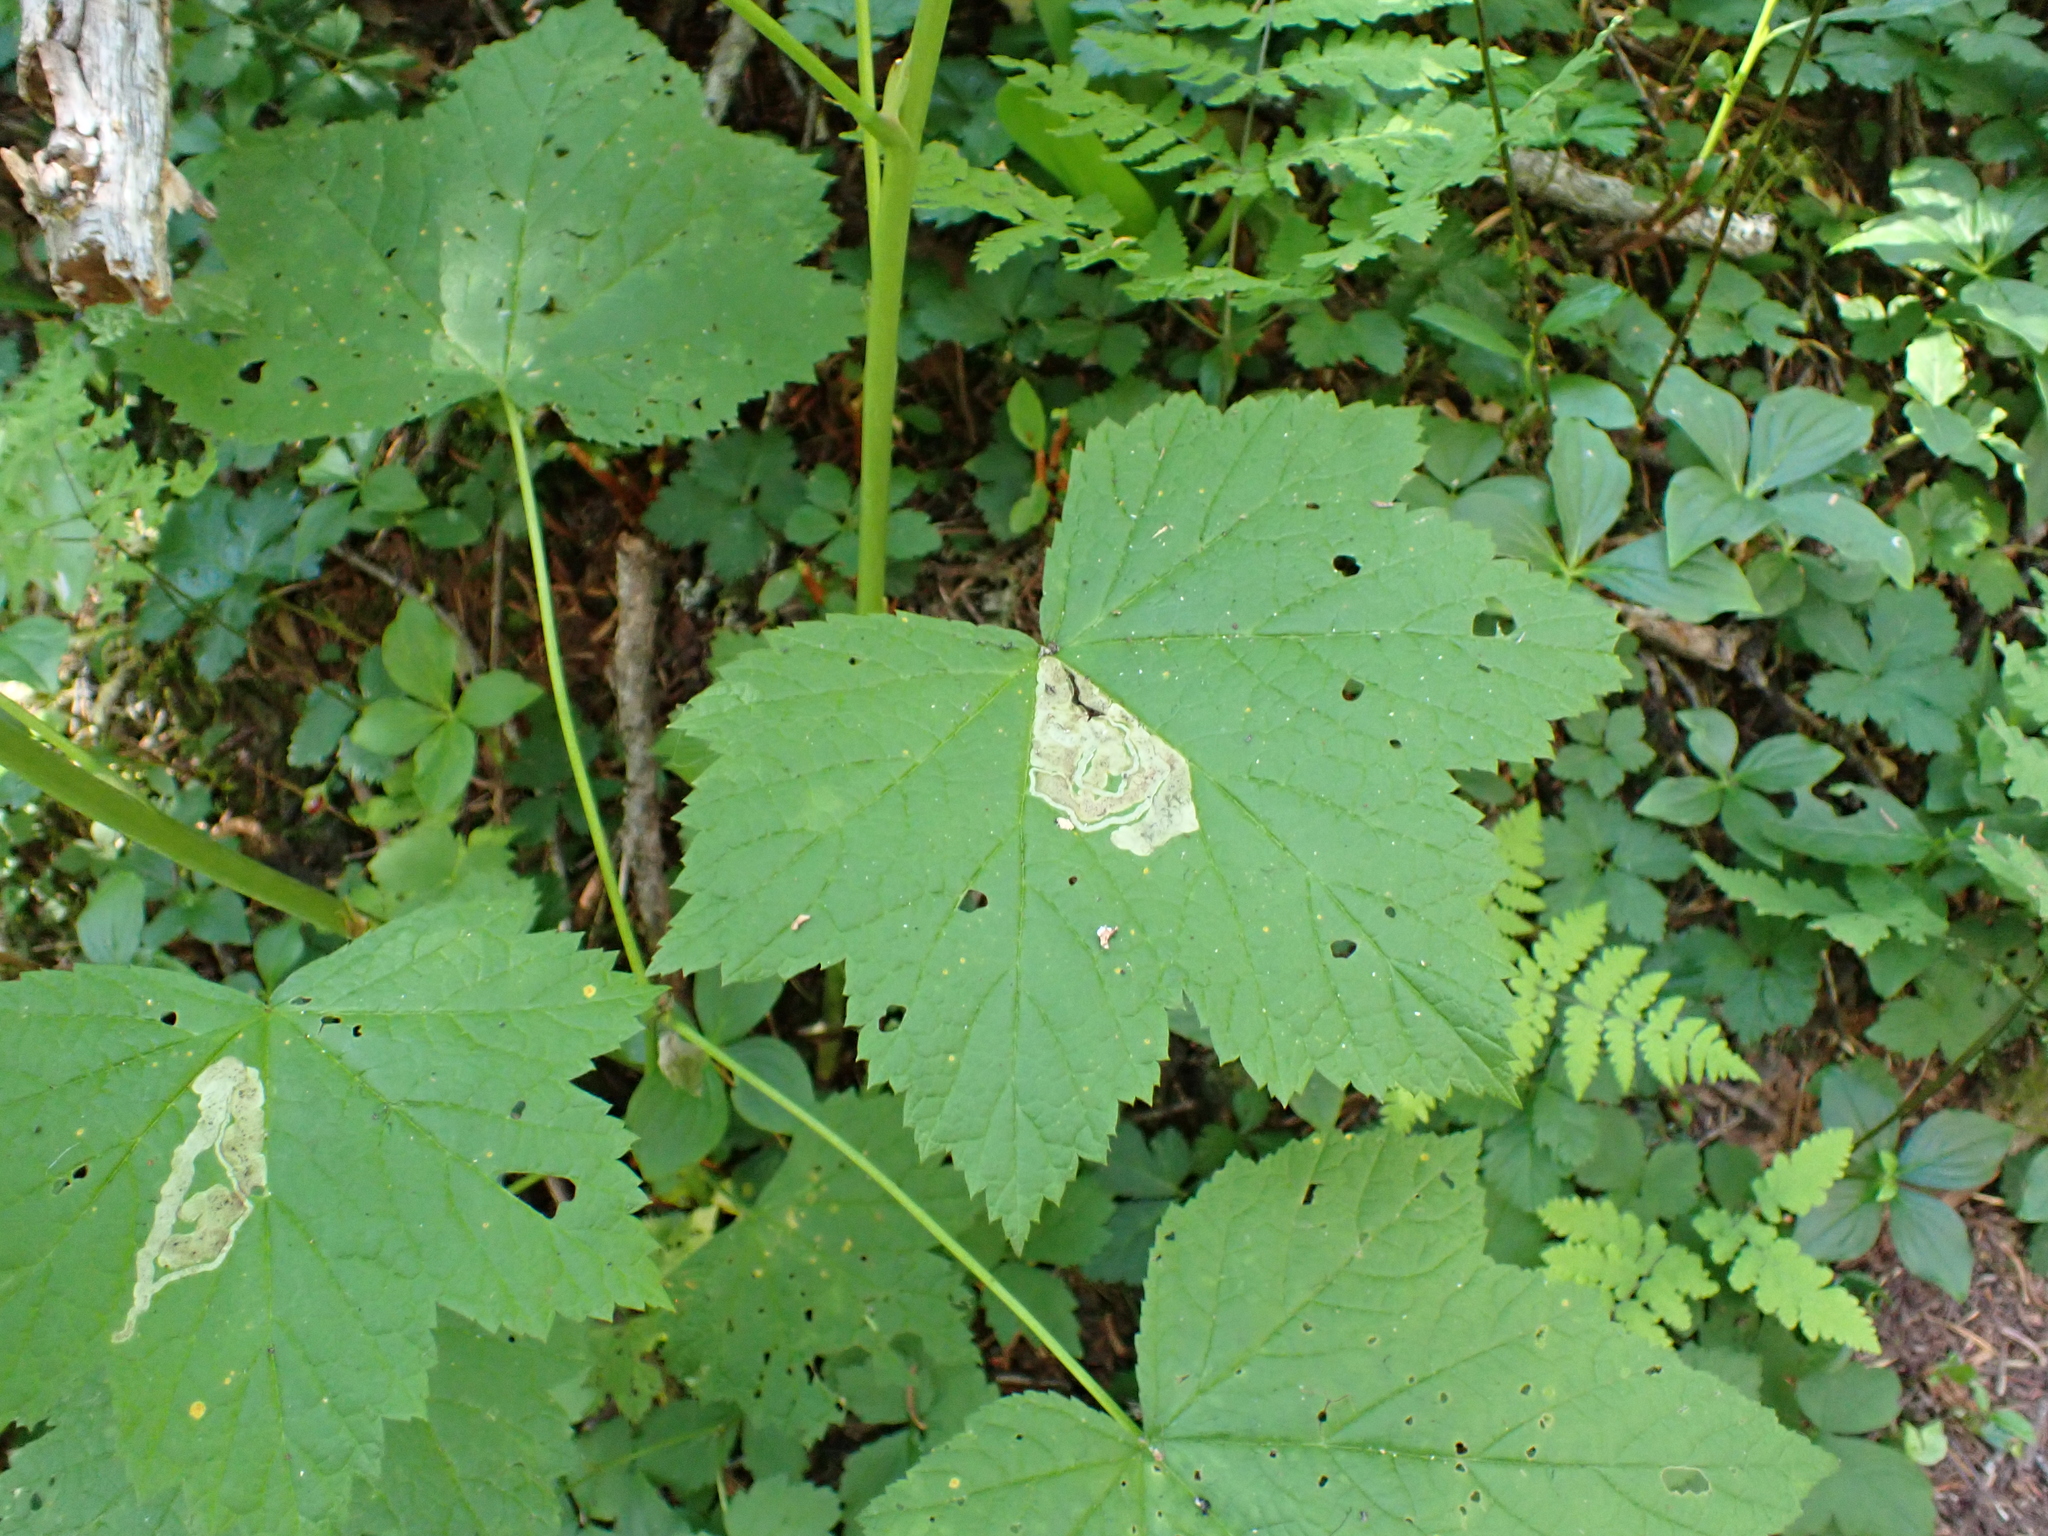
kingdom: Plantae
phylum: Tracheophyta
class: Magnoliopsida
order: Rosales
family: Rosaceae
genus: Rubus
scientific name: Rubus parviflorus
